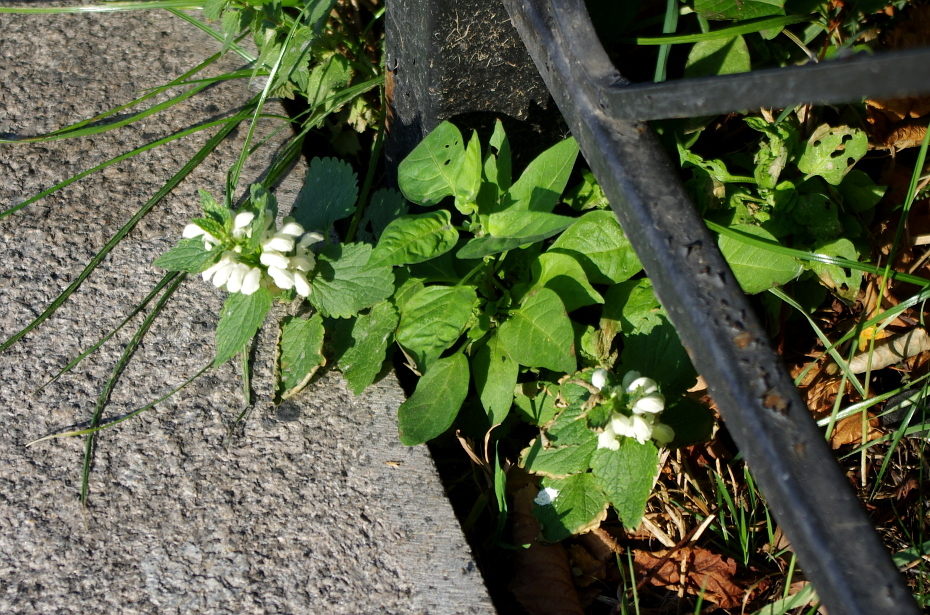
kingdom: Plantae
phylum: Tracheophyta
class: Magnoliopsida
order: Lamiales
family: Lamiaceae
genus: Lamium
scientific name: Lamium album
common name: White dead-nettle
